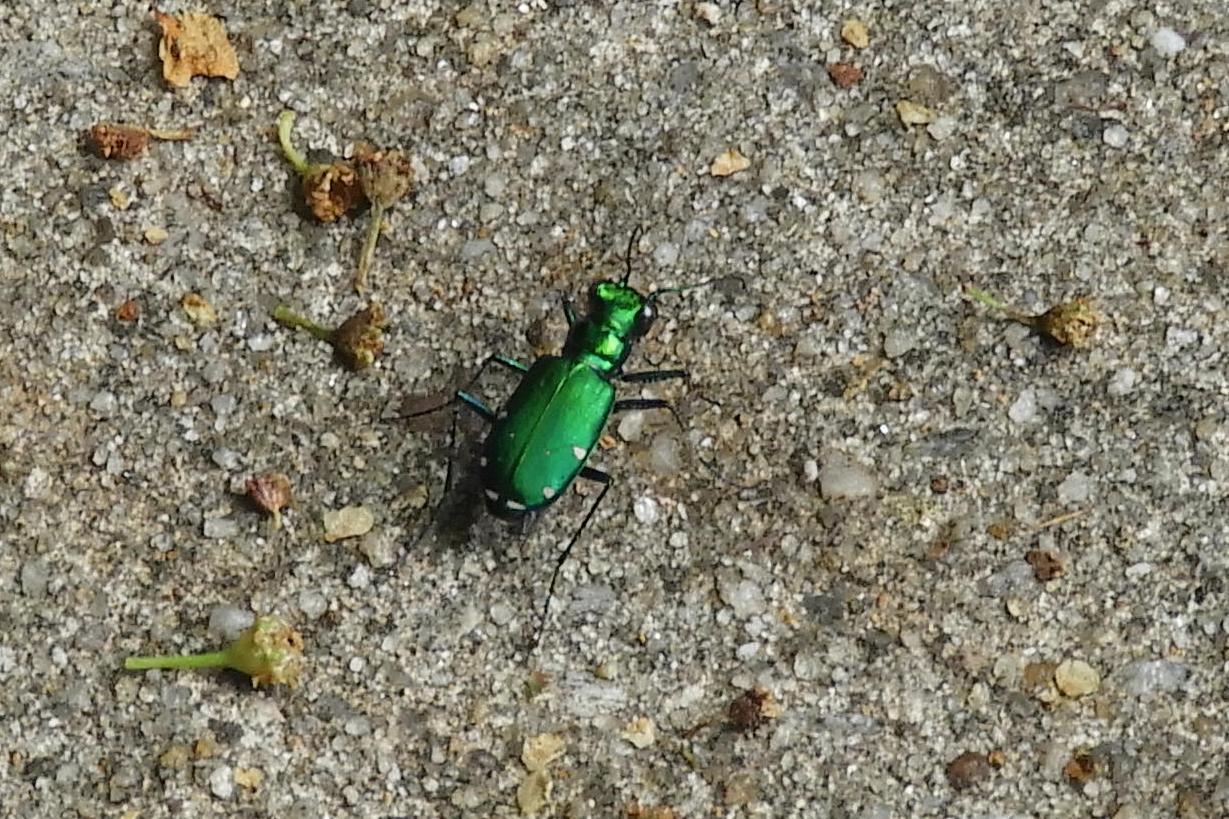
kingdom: Animalia
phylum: Arthropoda
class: Insecta
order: Coleoptera
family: Carabidae
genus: Cicindela
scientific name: Cicindela sexguttata
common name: Six-spotted tiger beetle
